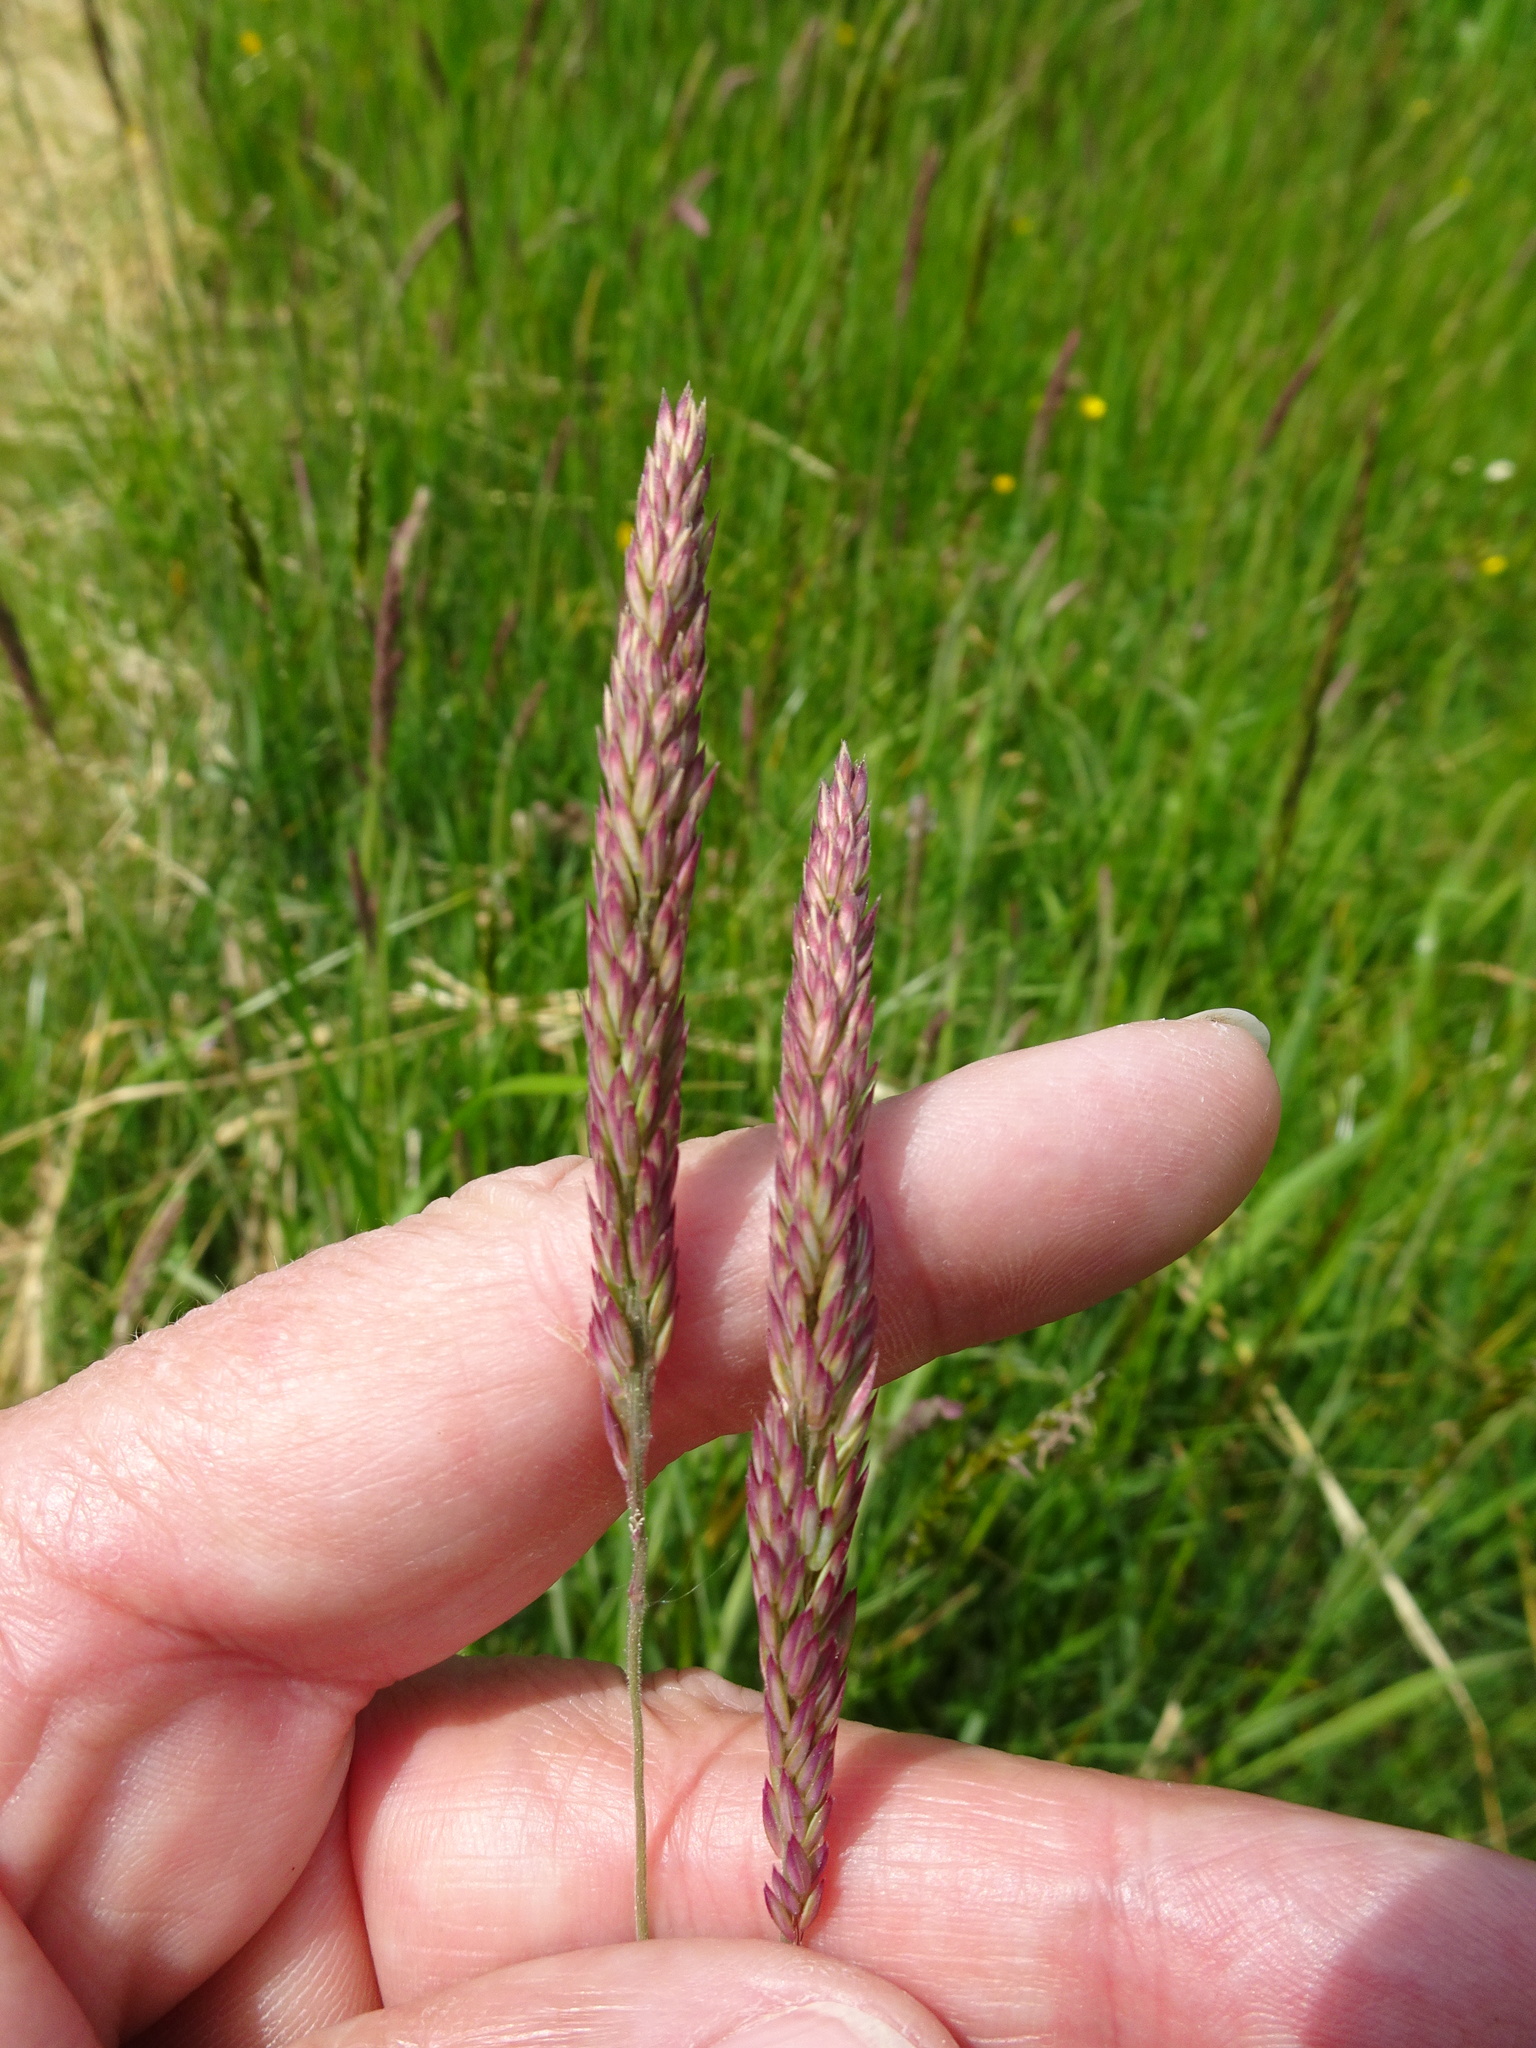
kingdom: Plantae
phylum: Tracheophyta
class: Liliopsida
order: Poales
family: Poaceae
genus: Holcus
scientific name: Holcus lanatus
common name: Yorkshire-fog
